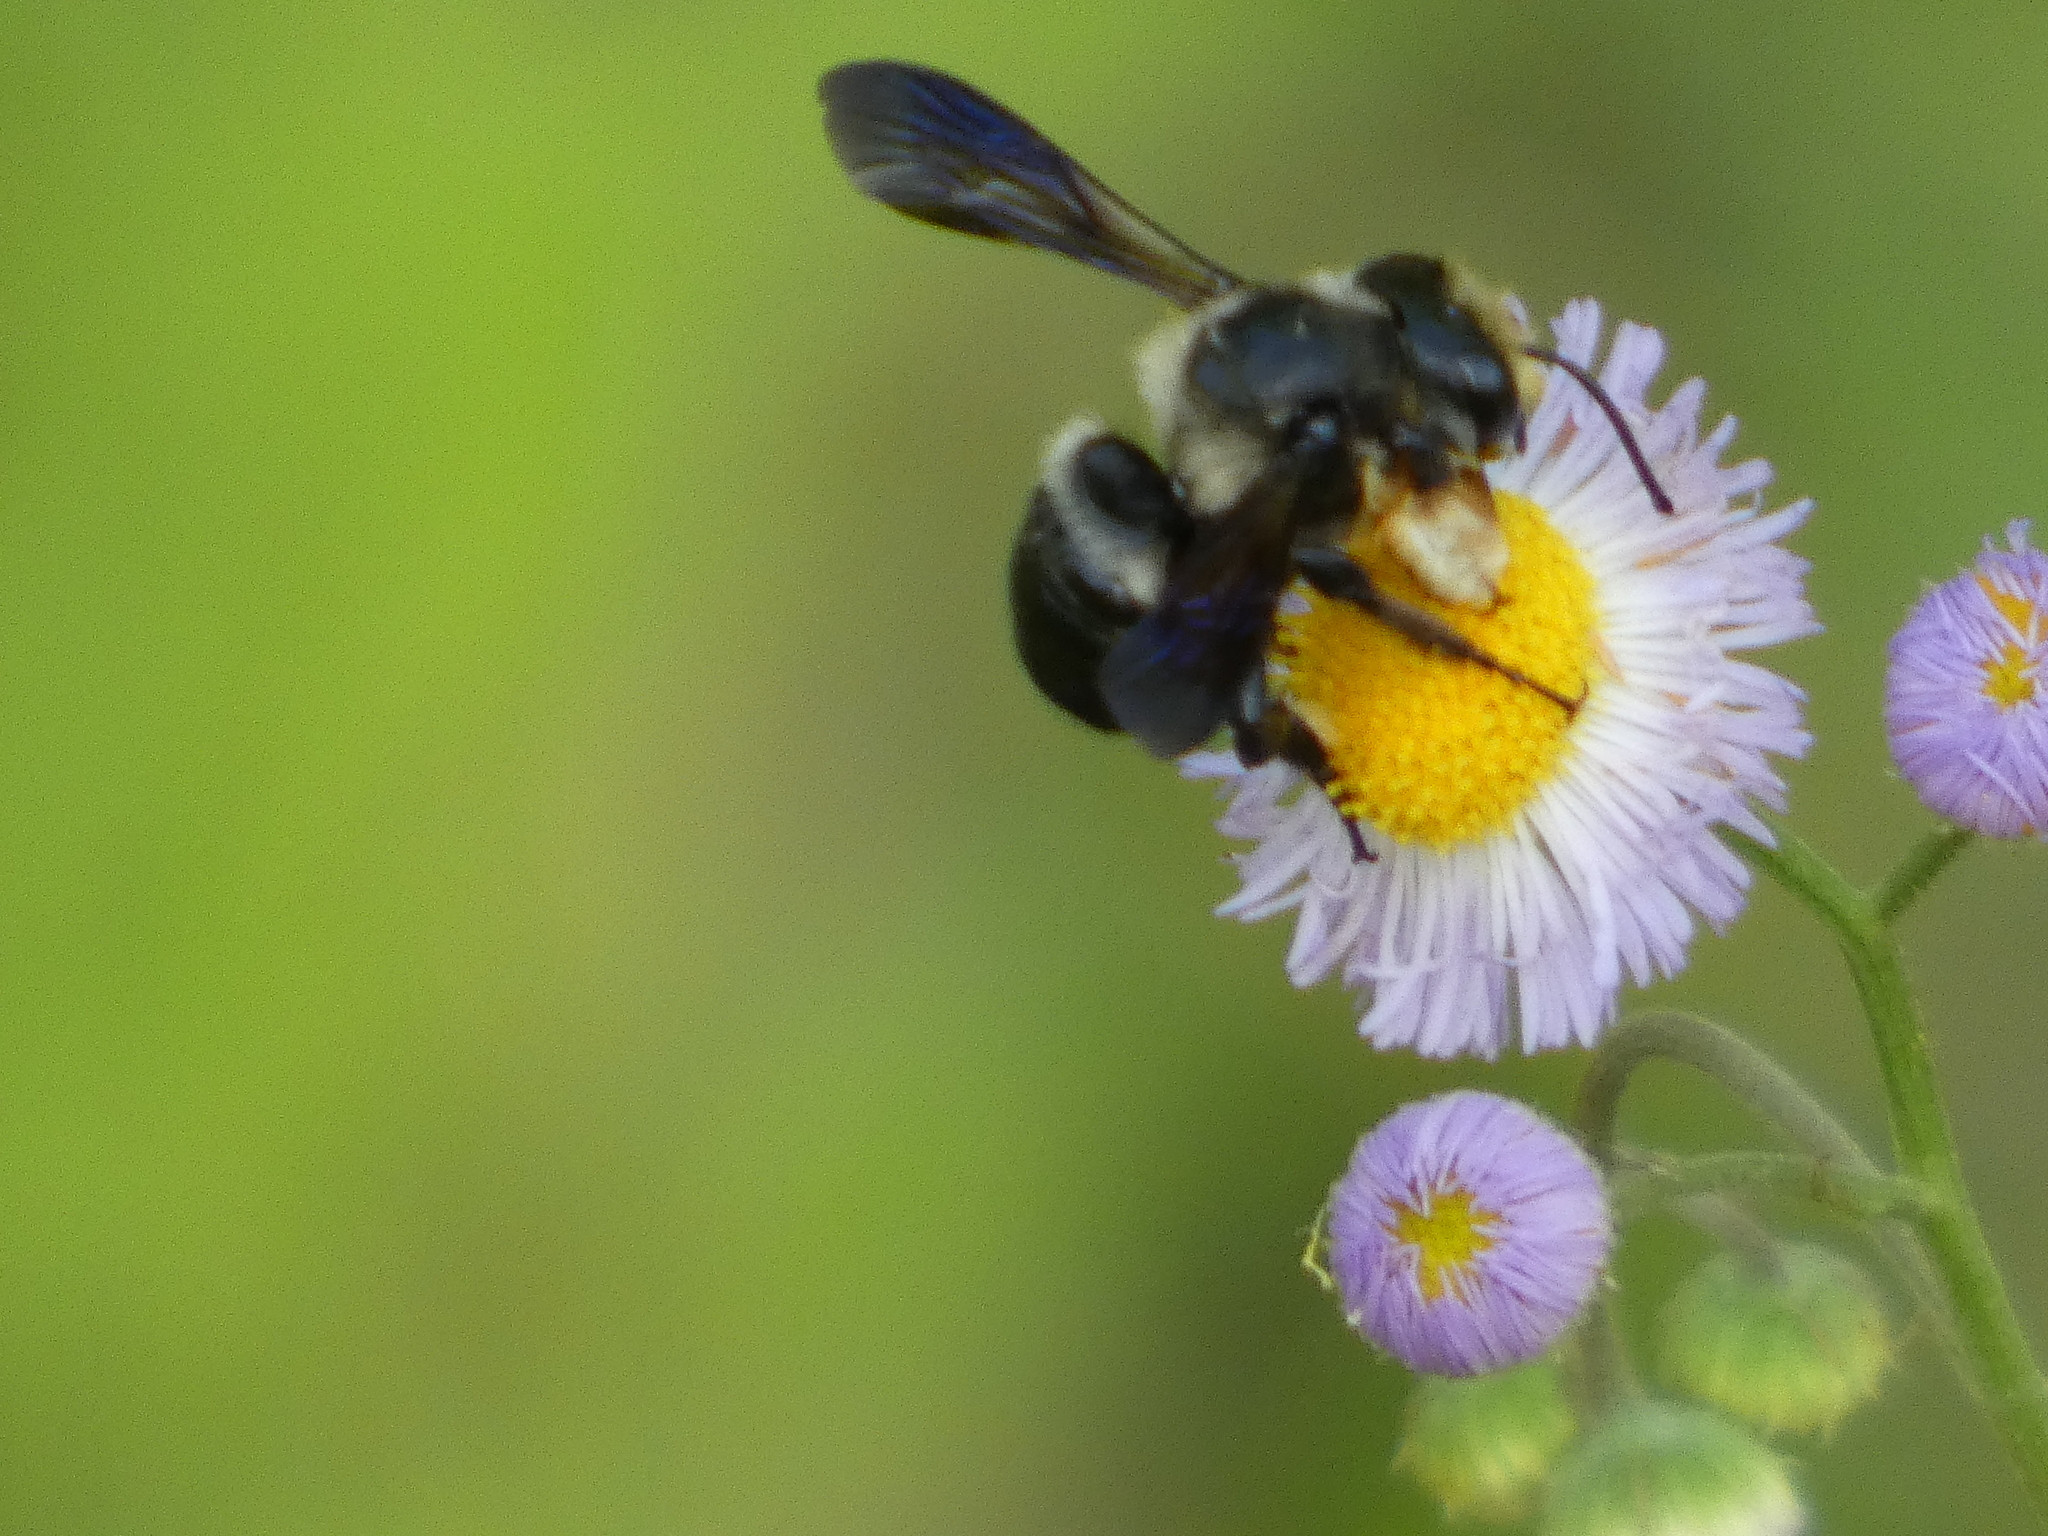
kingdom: Animalia
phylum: Arthropoda
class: Insecta
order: Hymenoptera
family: Megachilidae
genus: Megachile
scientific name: Megachile xylocopoides
